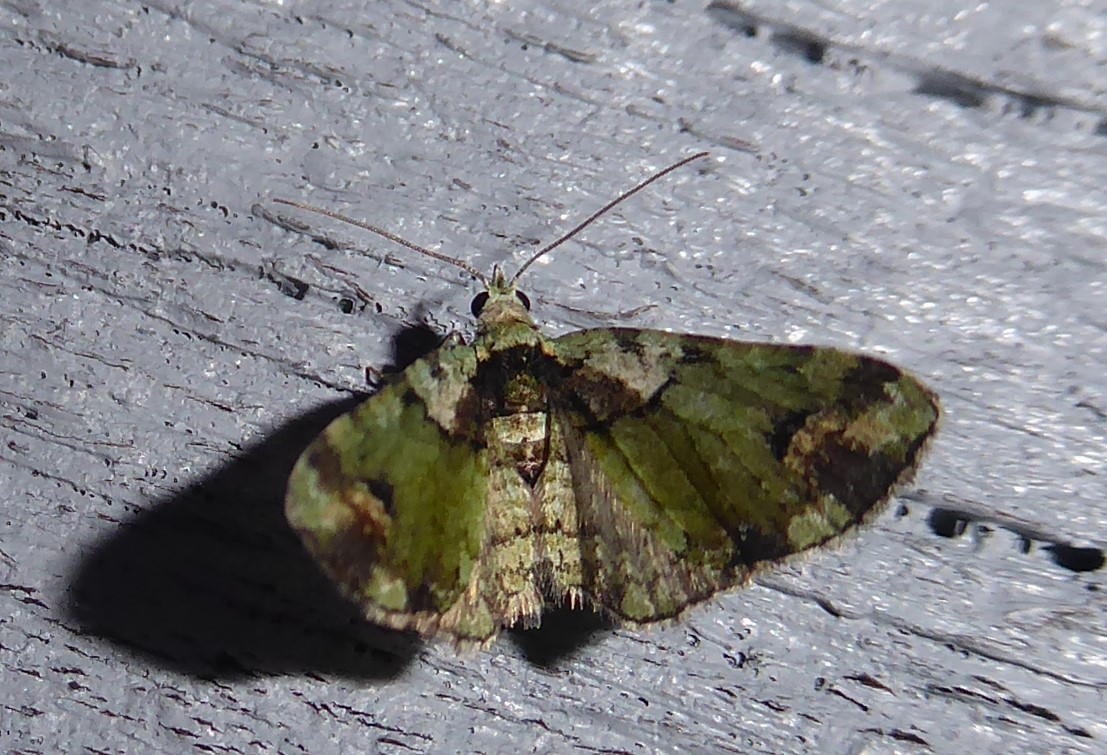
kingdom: Animalia
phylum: Arthropoda
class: Insecta
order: Lepidoptera
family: Geometridae
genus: Idaea
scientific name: Idaea mutanda
